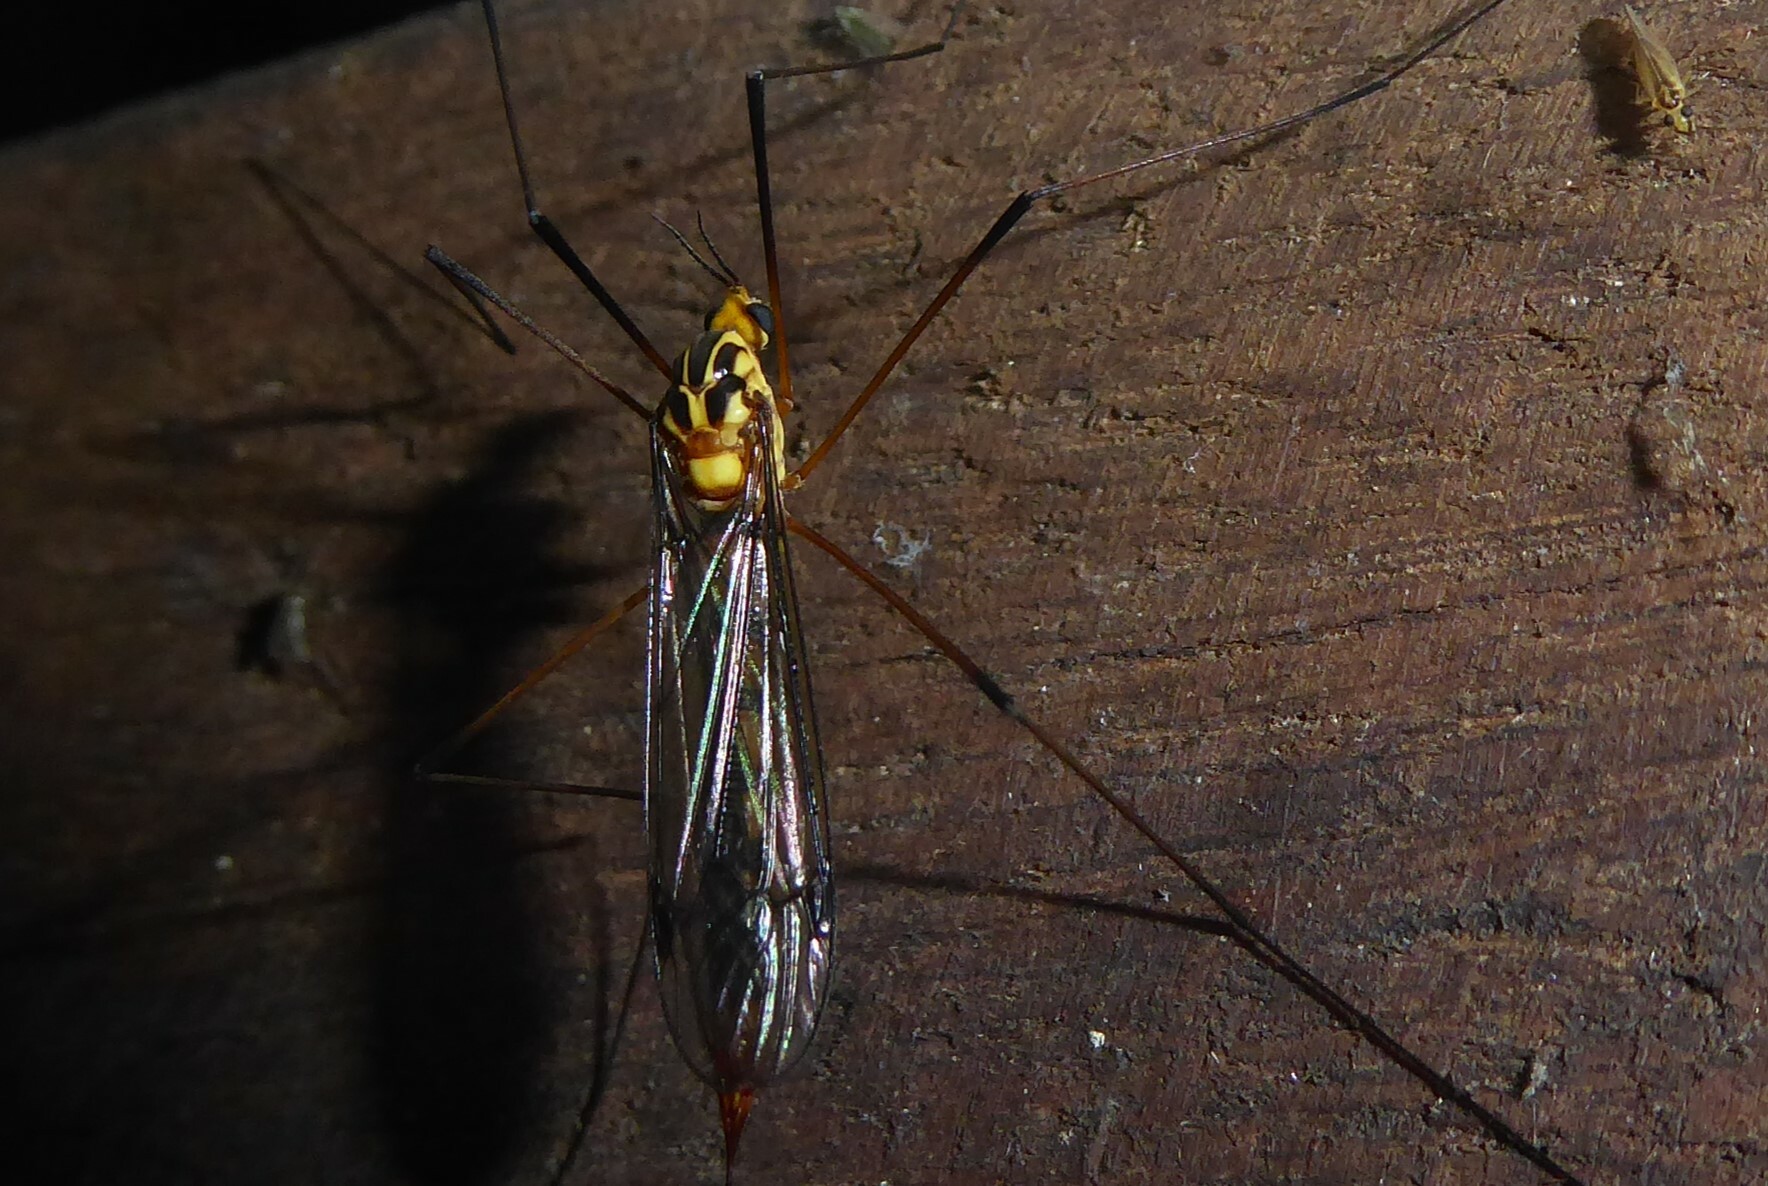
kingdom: Animalia
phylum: Arthropoda
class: Insecta
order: Diptera
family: Tipulidae
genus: Nephrotoma
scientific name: Nephrotoma australasiae
